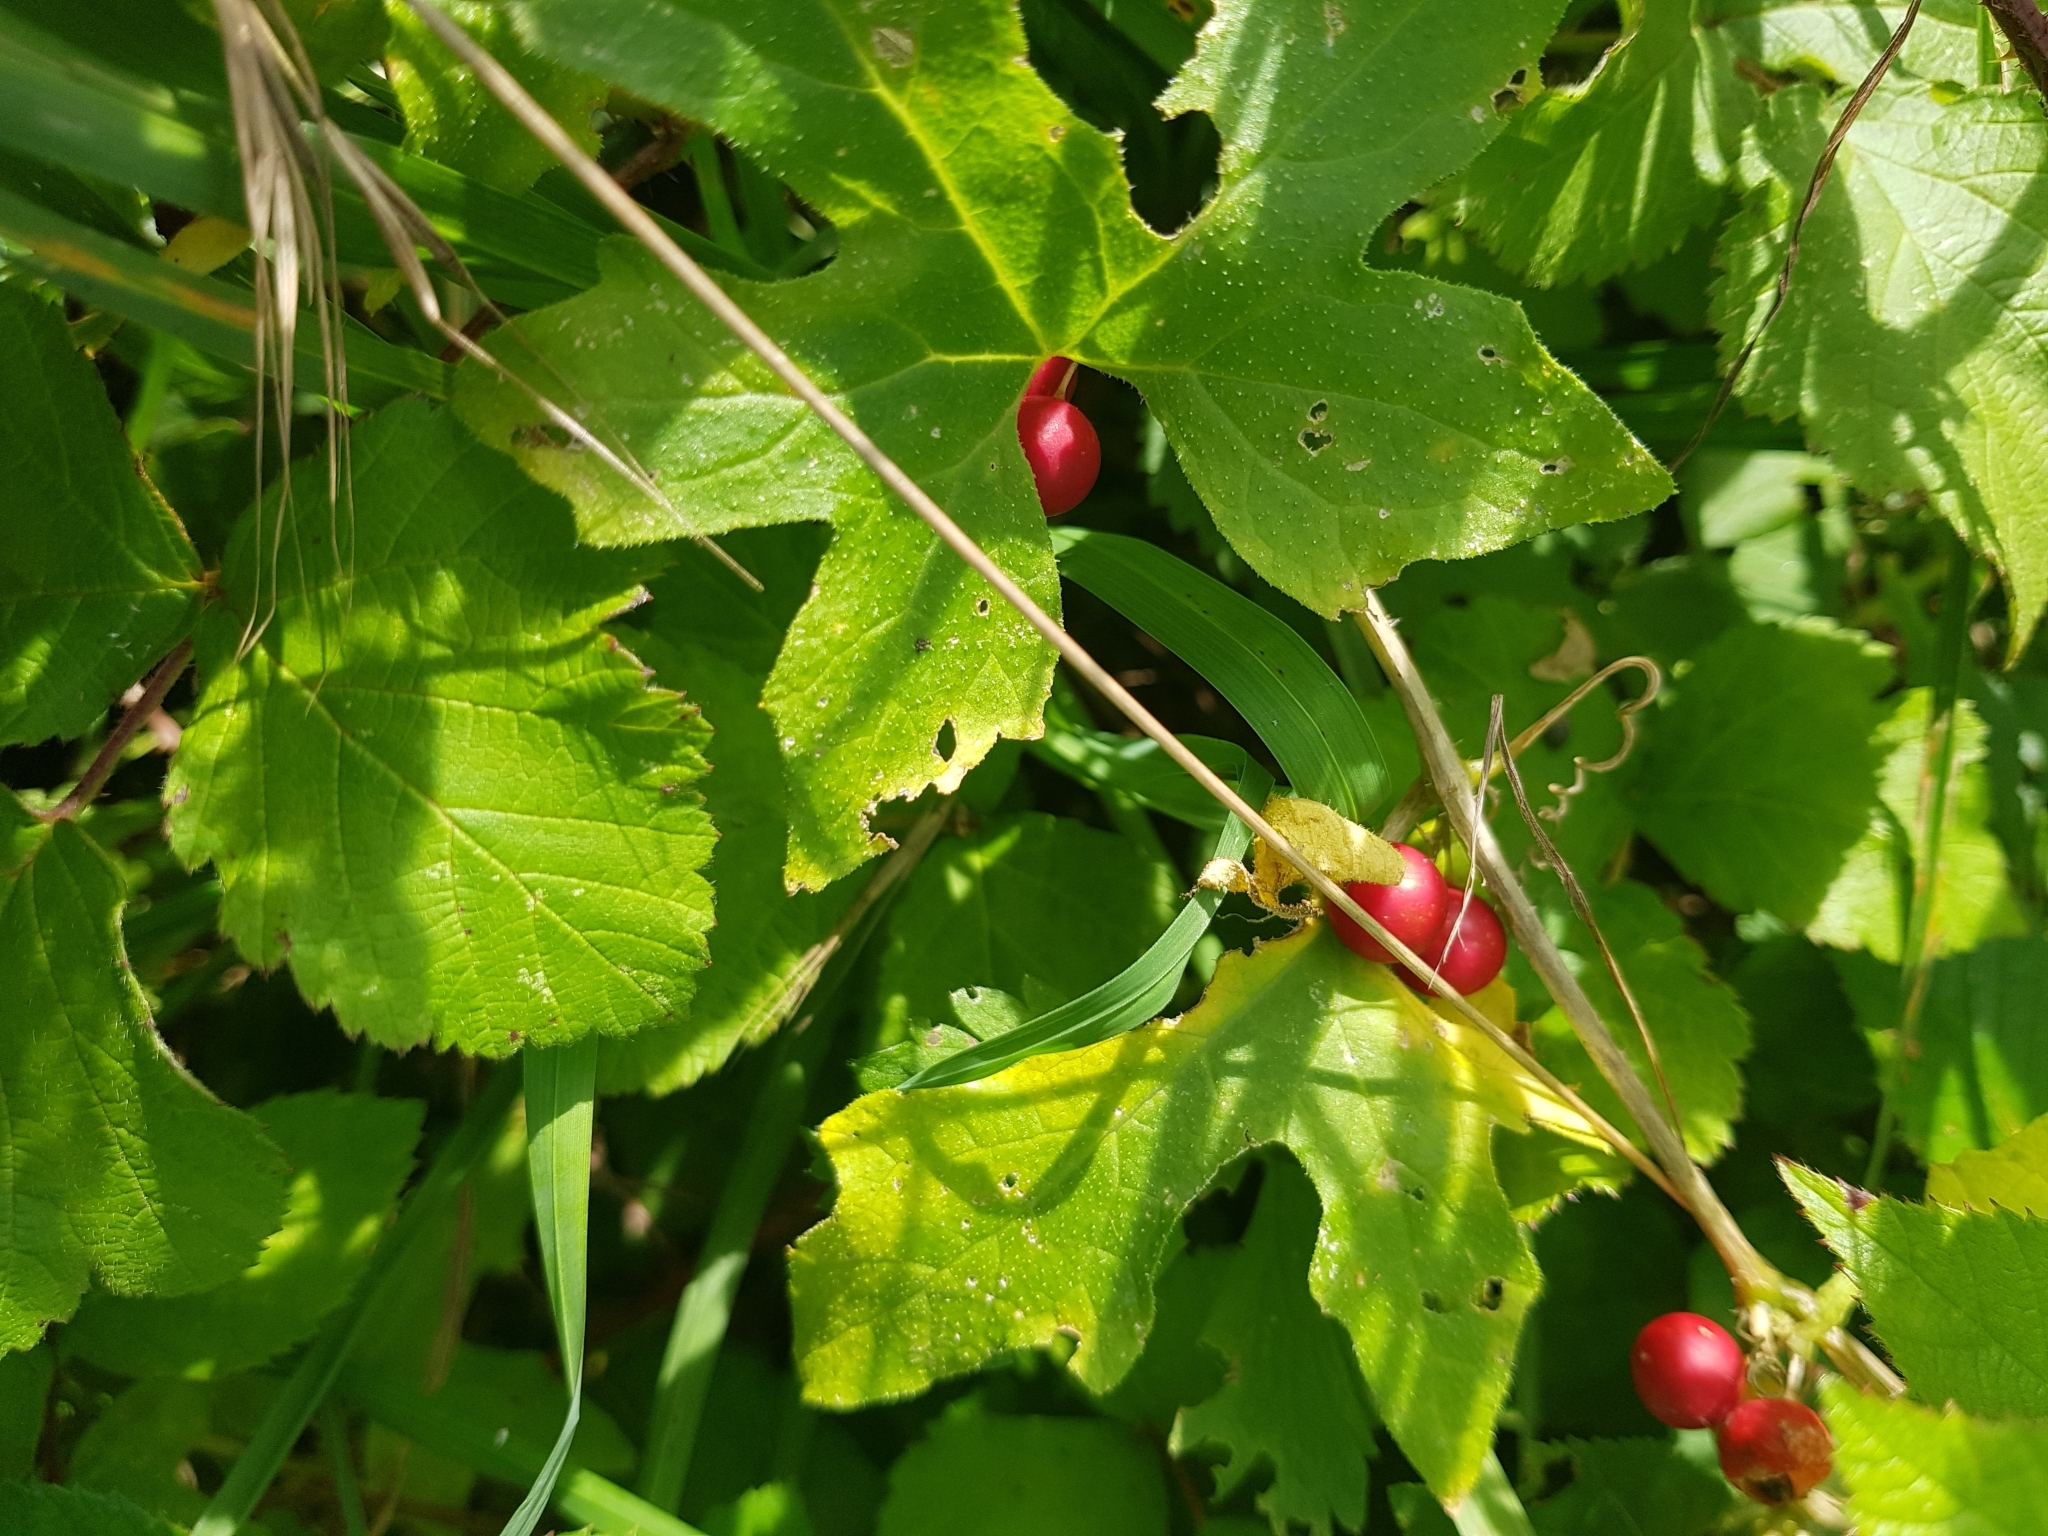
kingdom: Plantae
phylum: Tracheophyta
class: Magnoliopsida
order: Cucurbitales
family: Cucurbitaceae
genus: Bryonia
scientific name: Bryonia dioica
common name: White bryony
